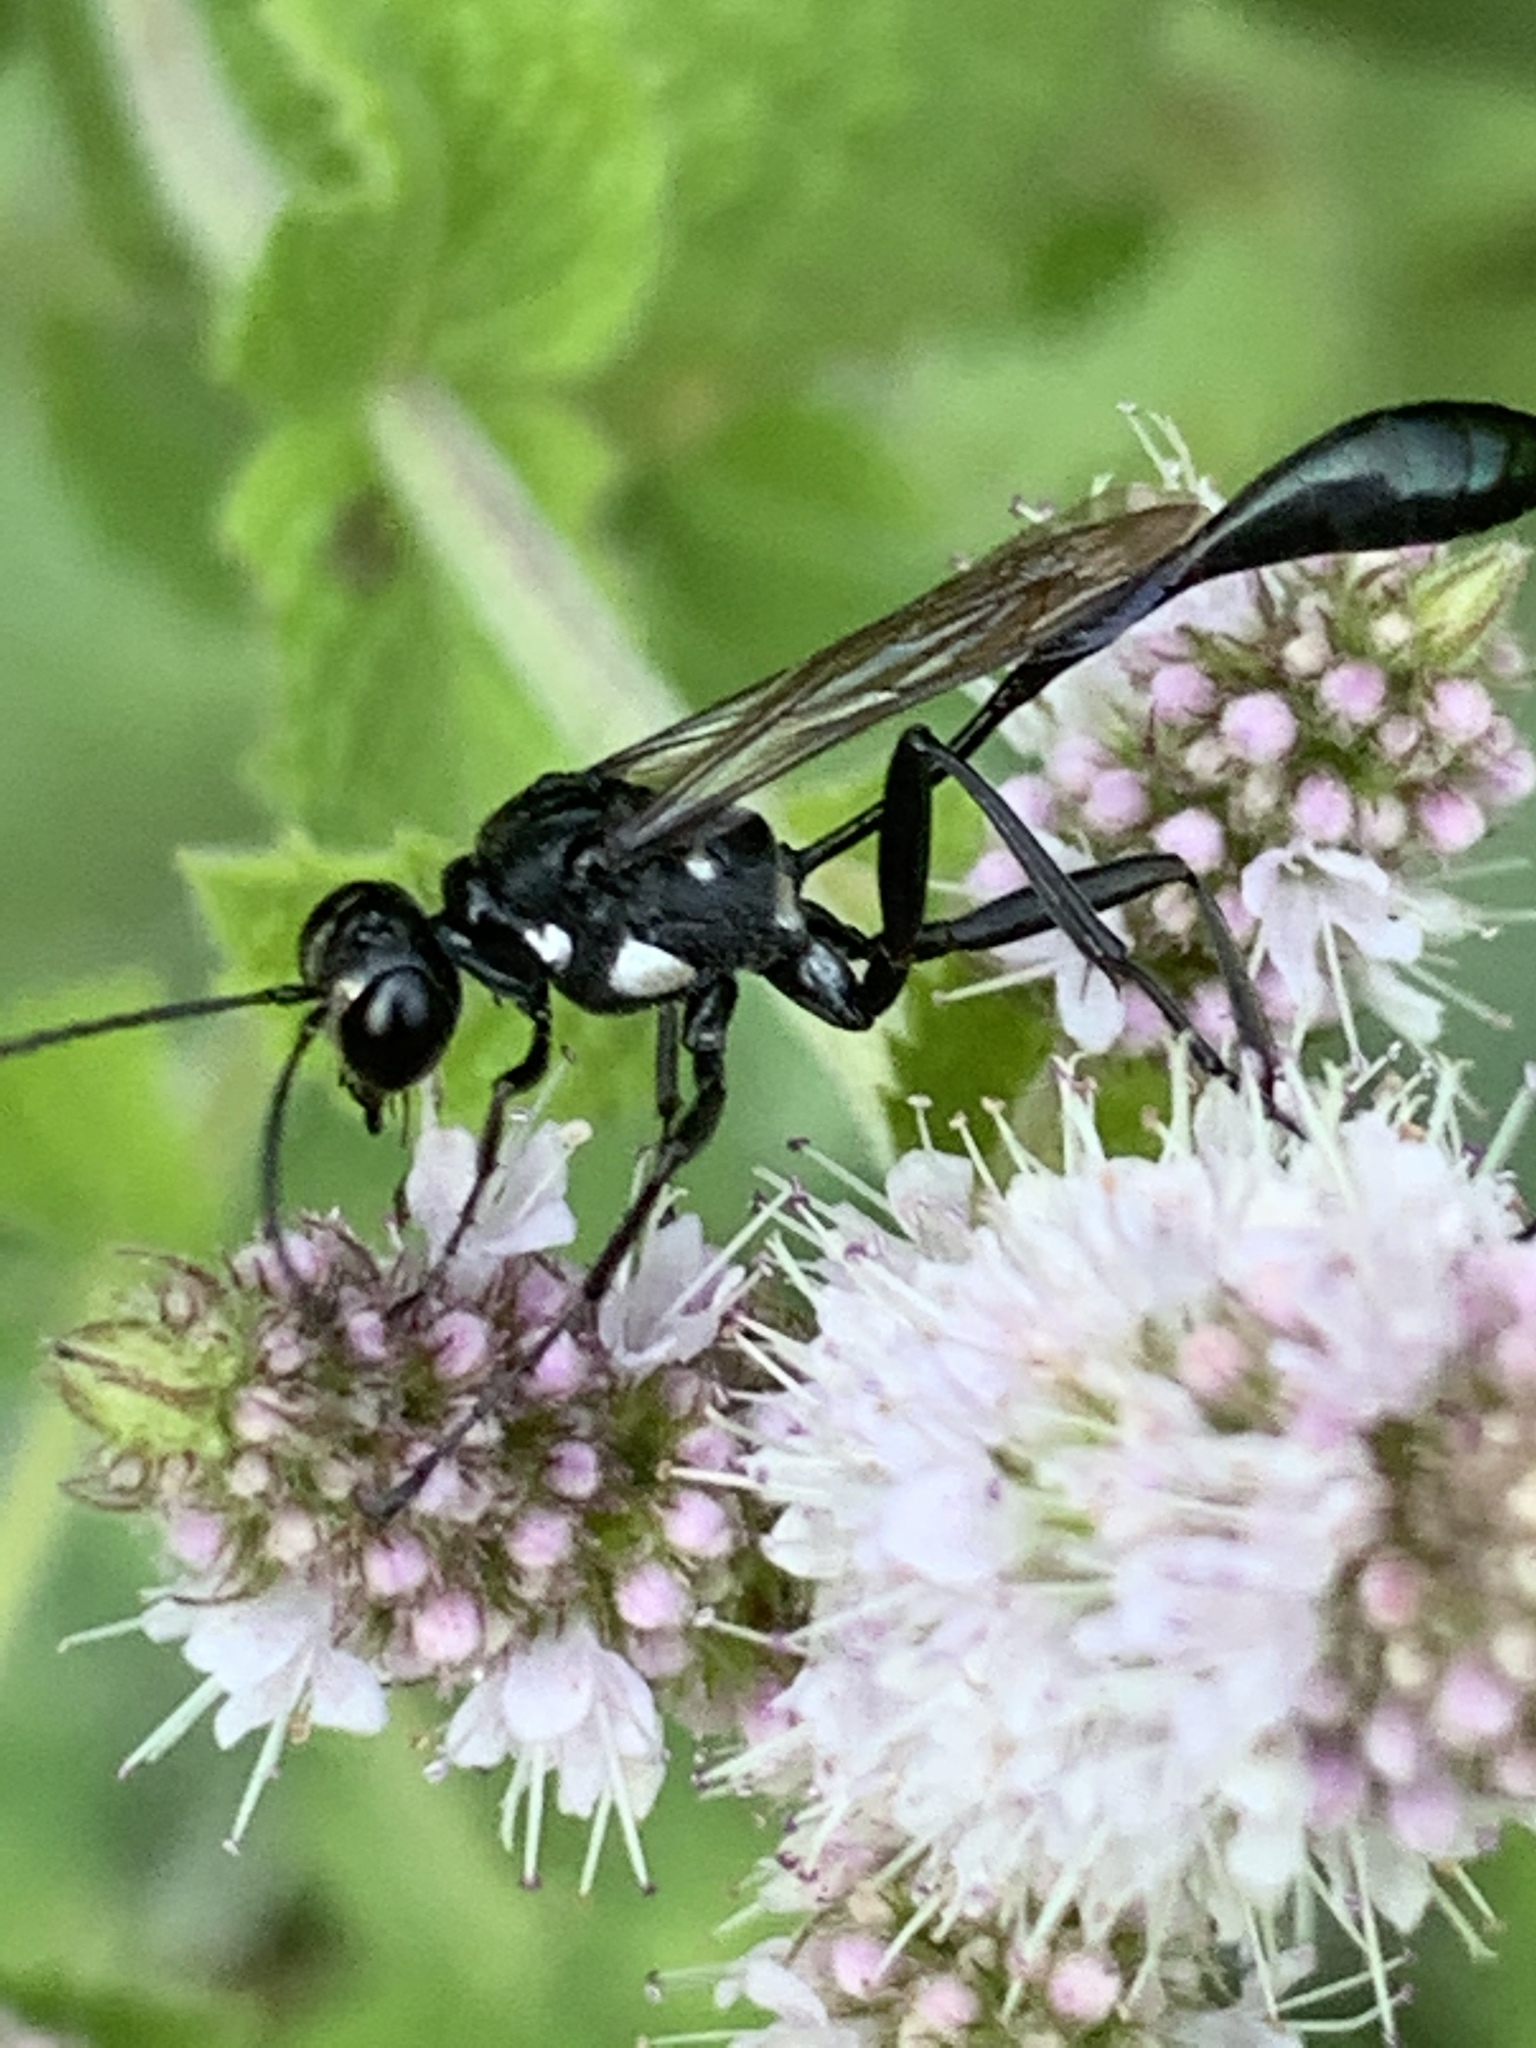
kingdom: Animalia
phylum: Arthropoda
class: Insecta
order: Hymenoptera
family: Sphecidae
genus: Eremnophila
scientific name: Eremnophila aureonotata
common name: Gold-marked thread-waisted wasp
